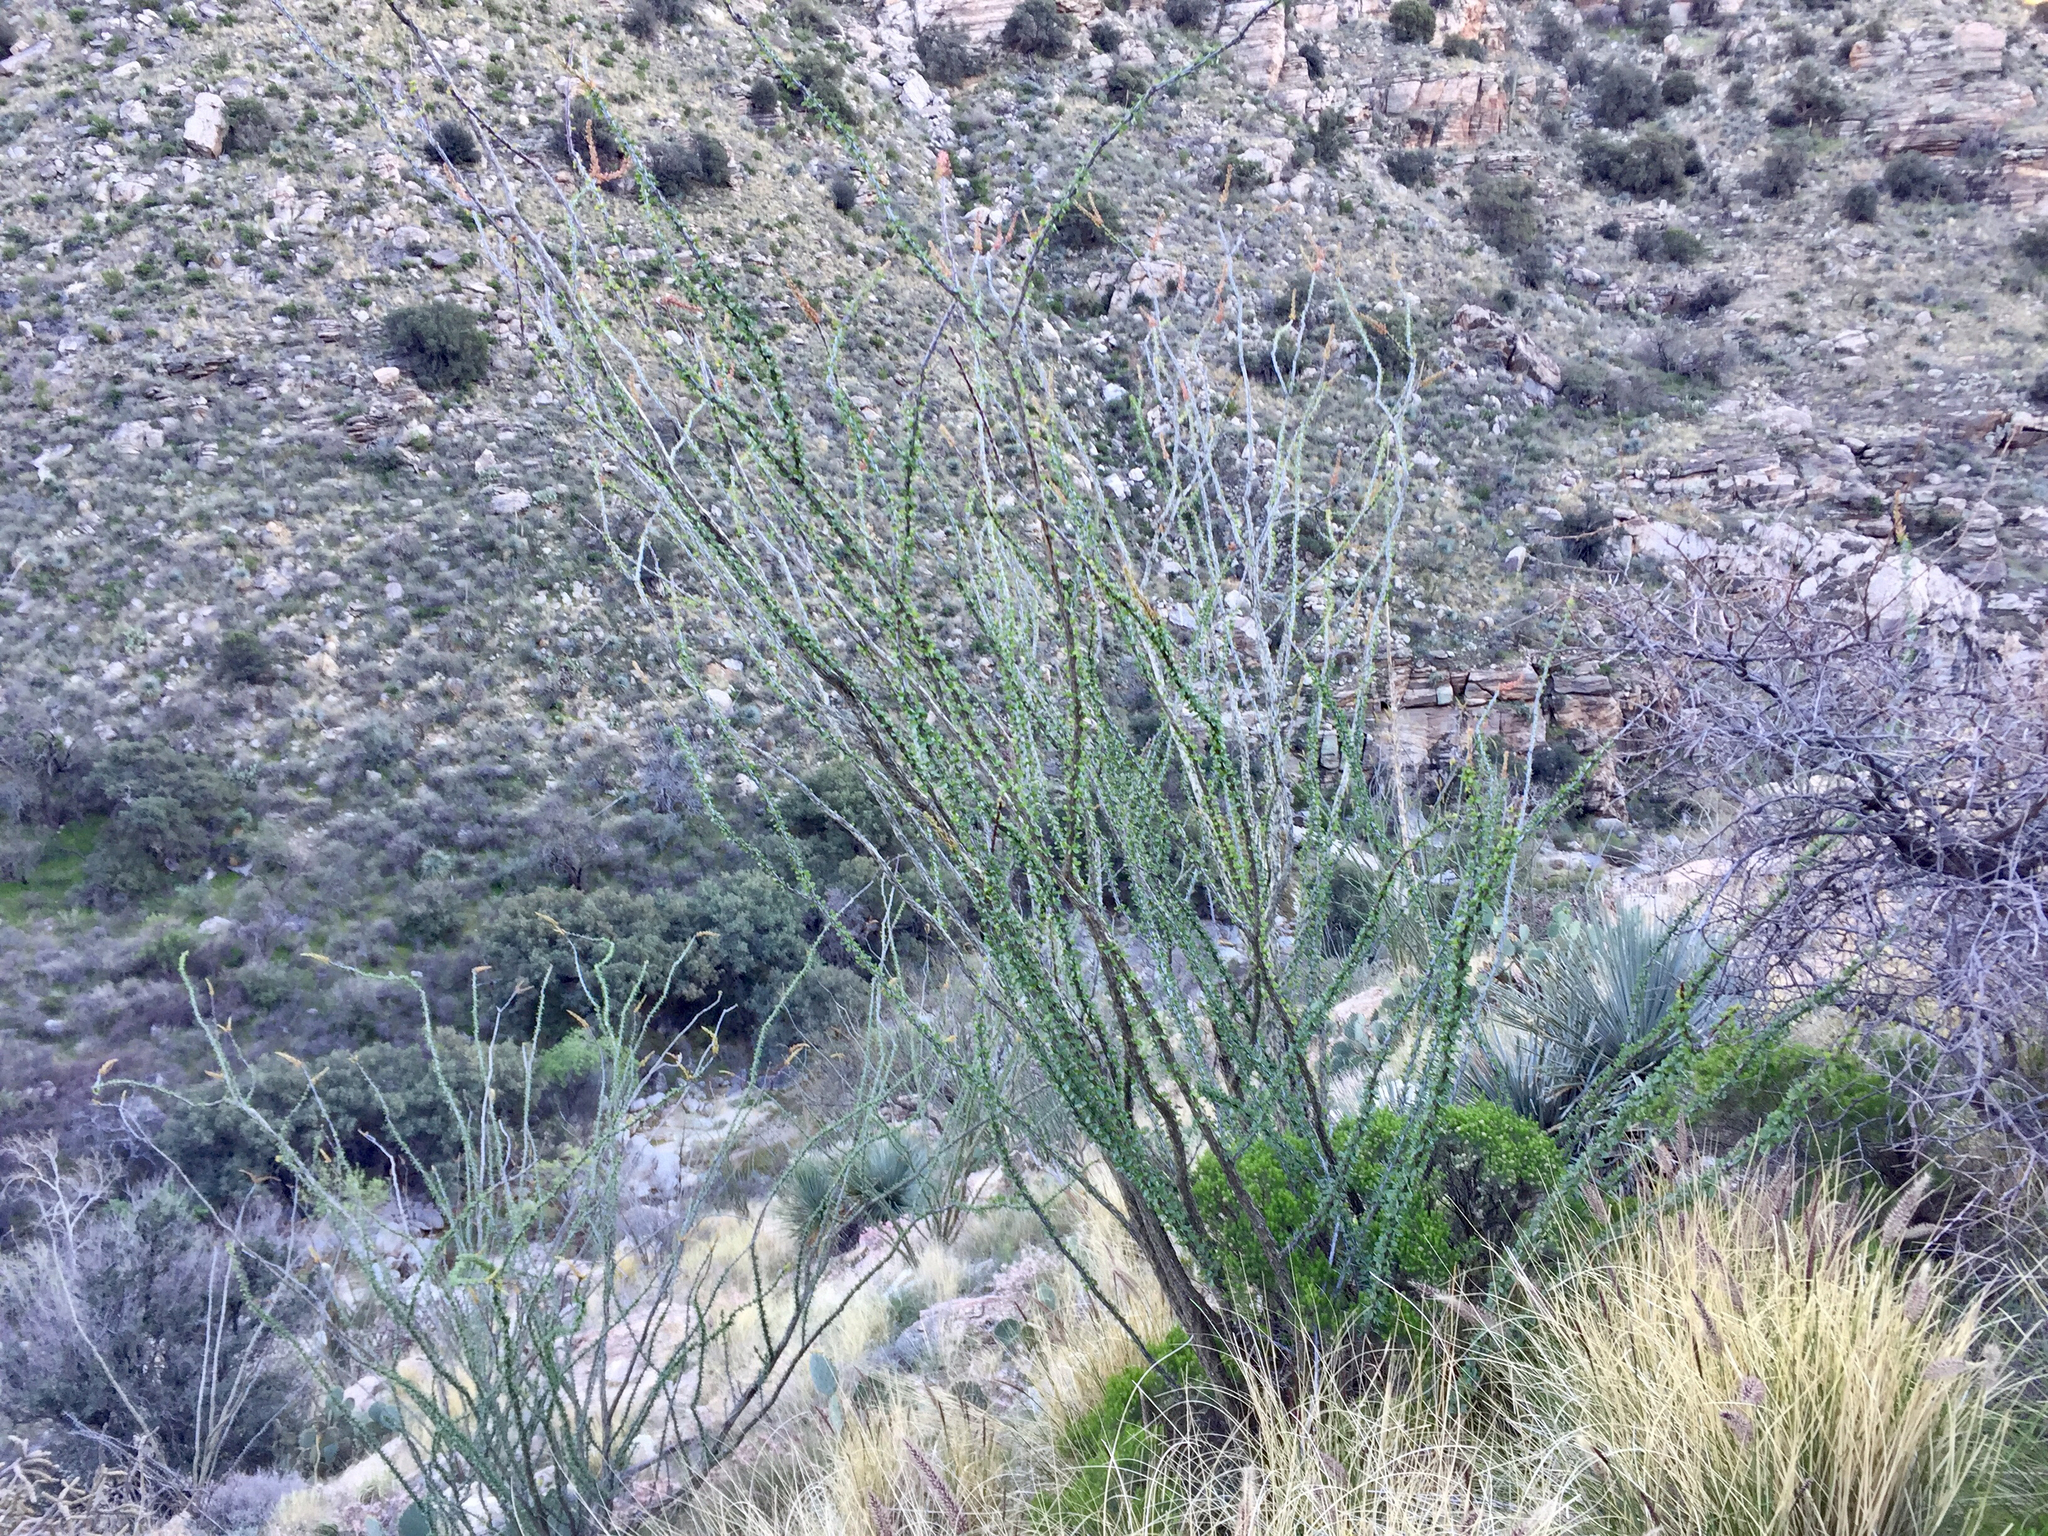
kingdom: Plantae
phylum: Tracheophyta
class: Magnoliopsida
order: Ericales
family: Fouquieriaceae
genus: Fouquieria
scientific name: Fouquieria splendens
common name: Vine-cactus
